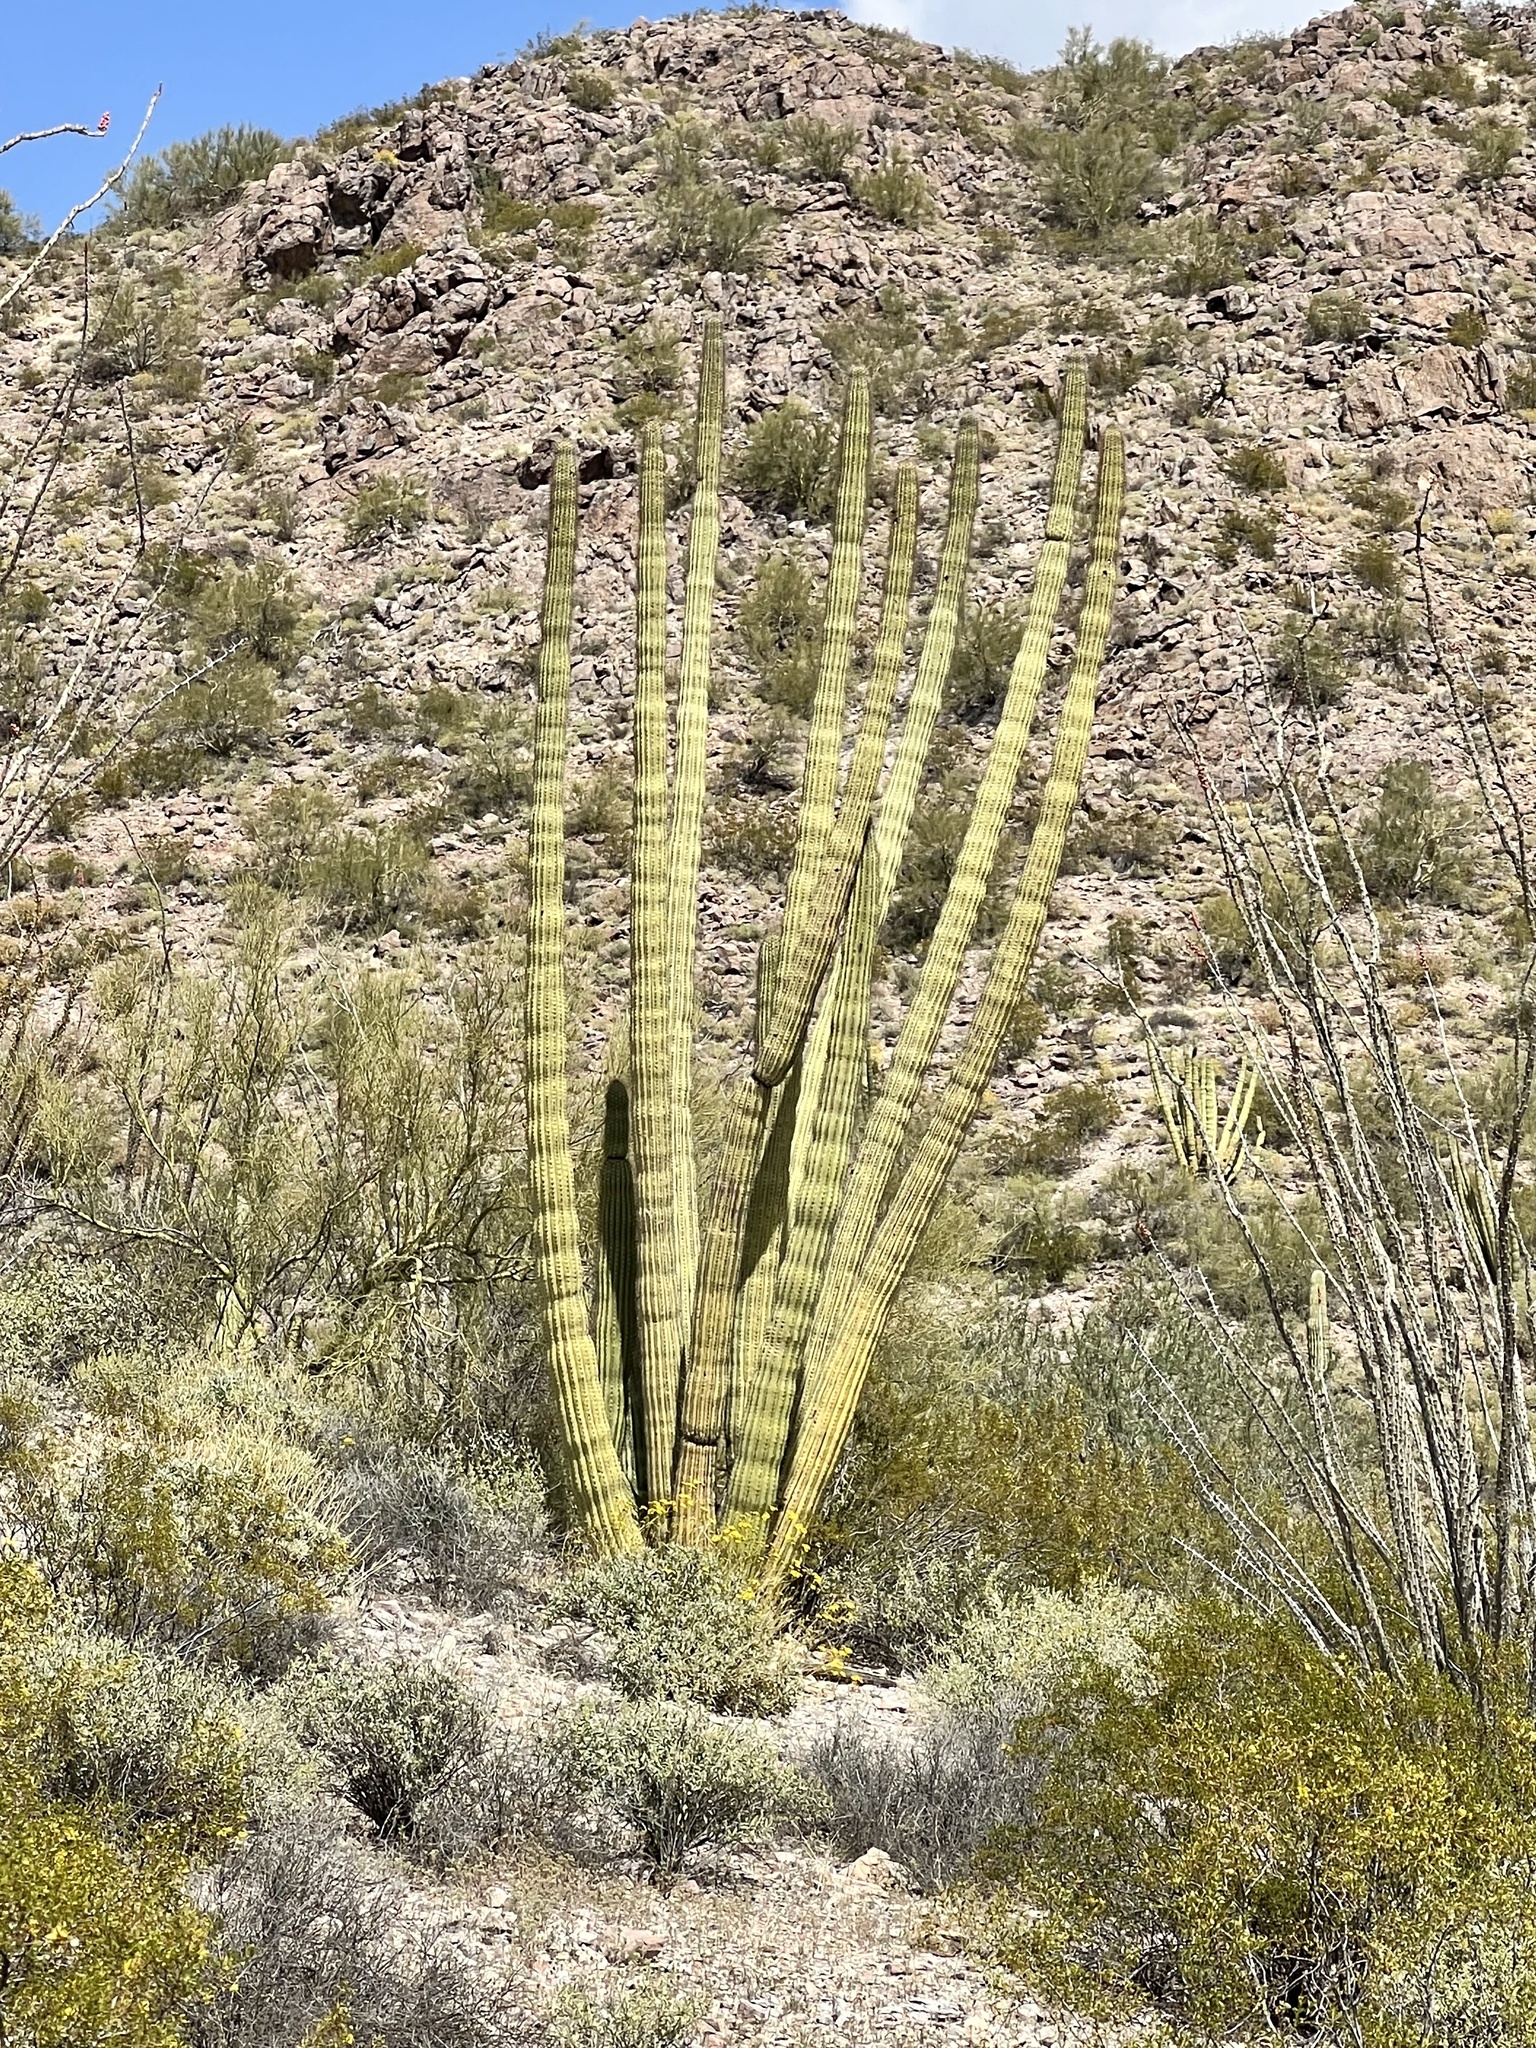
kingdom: Plantae
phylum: Tracheophyta
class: Magnoliopsida
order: Caryophyllales
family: Cactaceae
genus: Stenocereus
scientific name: Stenocereus thurberi
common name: Organ pipe cactus
